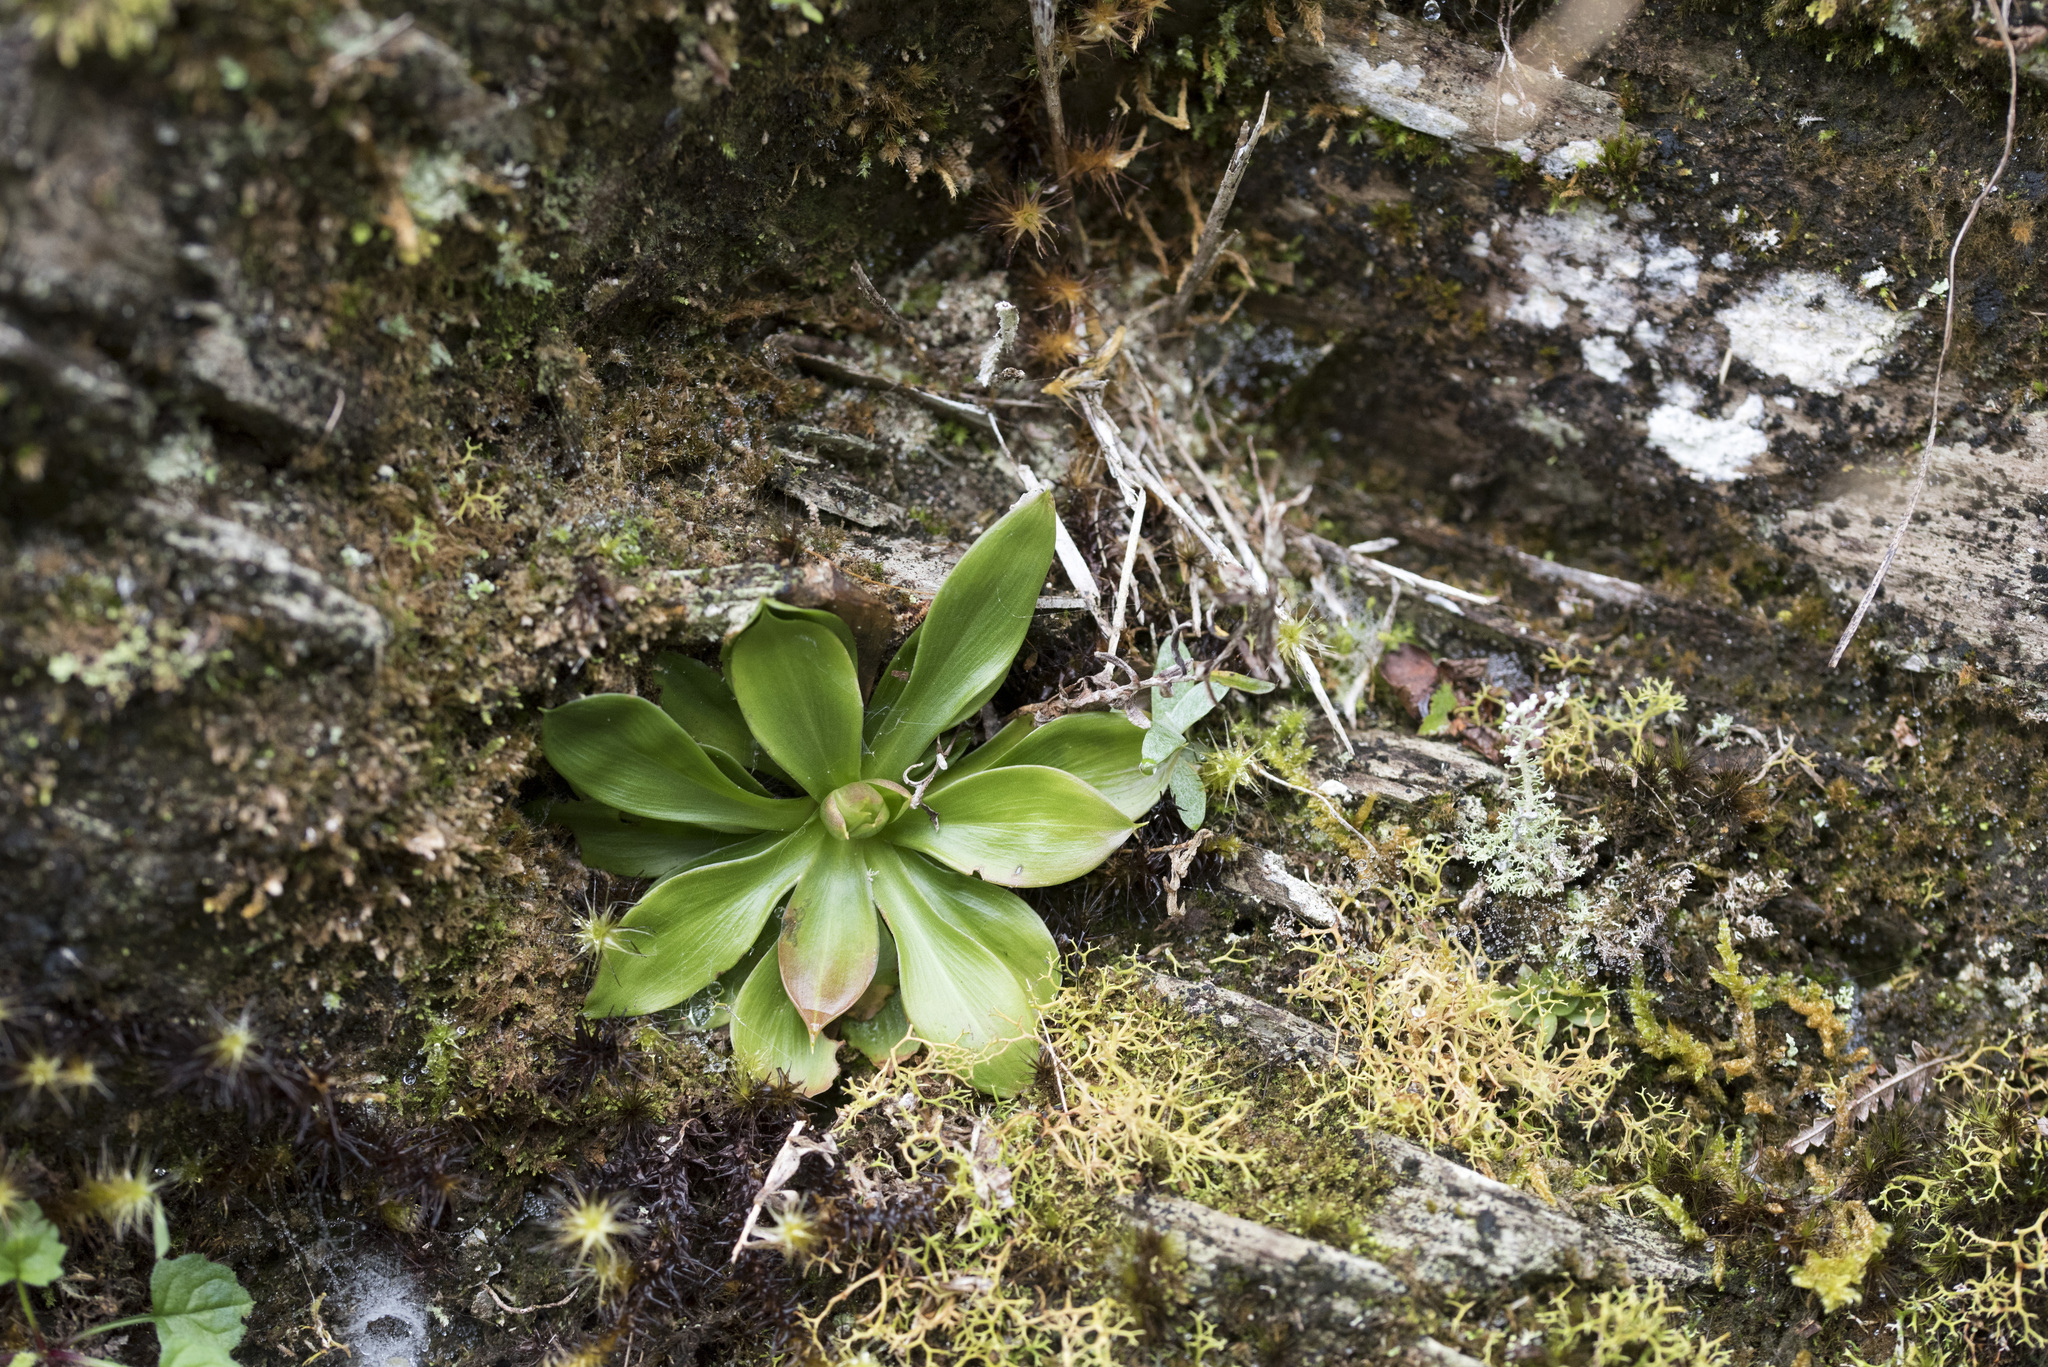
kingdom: Plantae
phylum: Tracheophyta
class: Liliopsida
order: Liliales
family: Melanthiaceae
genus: Helonias
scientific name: Helonias umbellata
